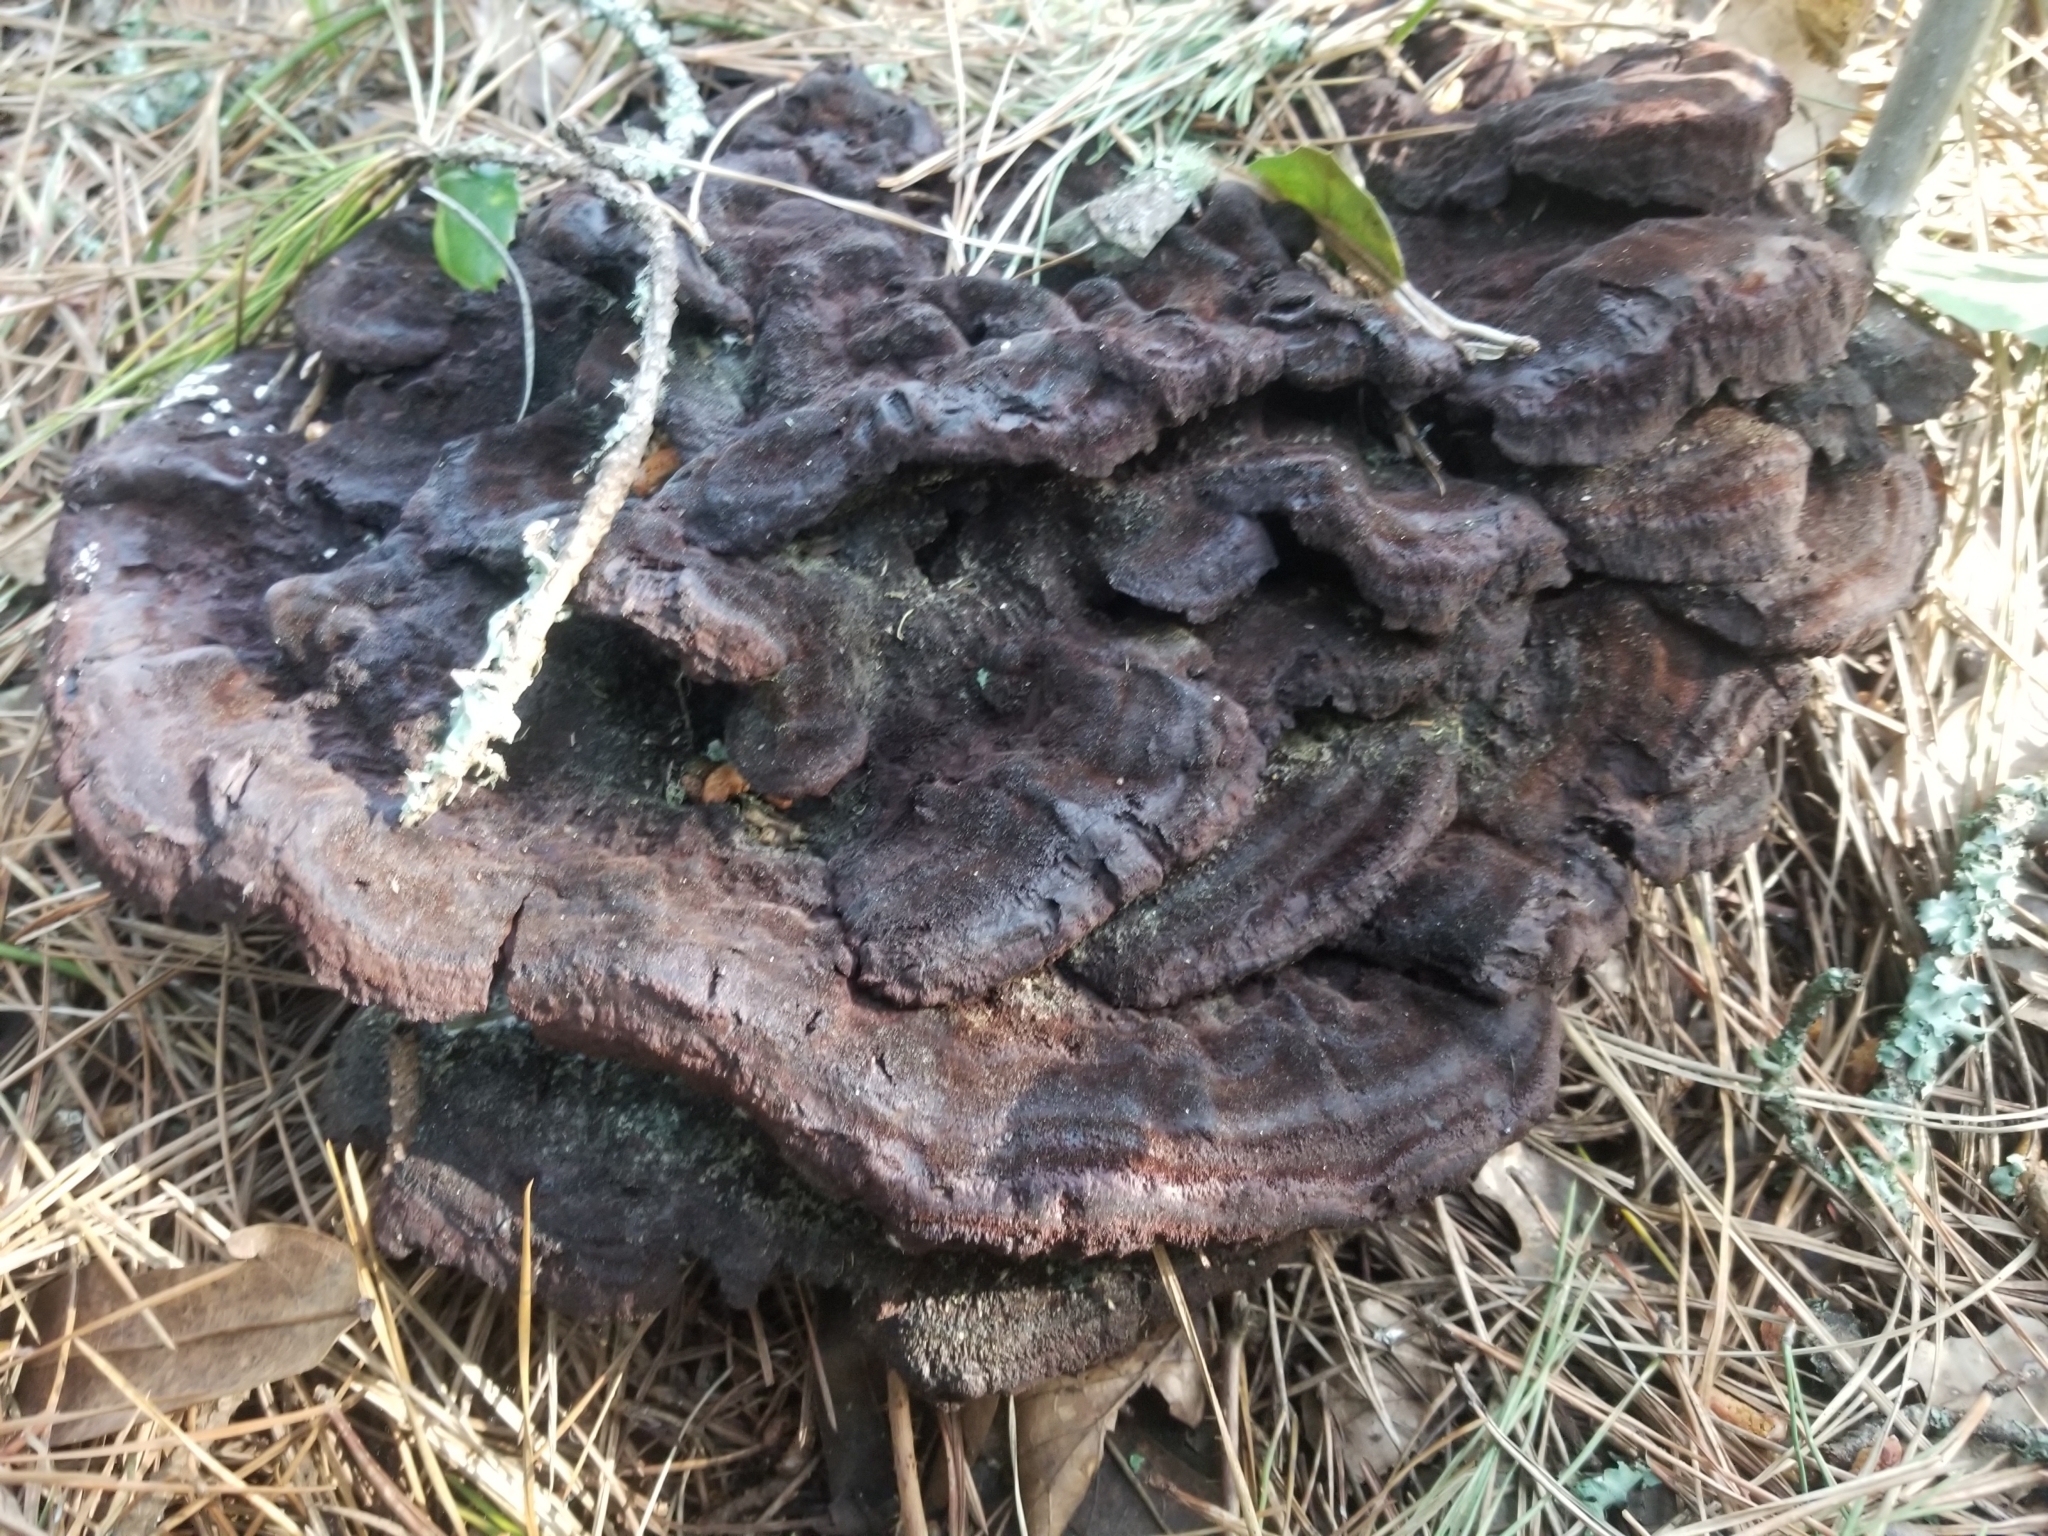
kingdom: Fungi
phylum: Basidiomycota
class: Agaricomycetes
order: Polyporales
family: Laetiporaceae
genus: Phaeolus
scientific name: Phaeolus schweinitzii
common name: Dyer's mazegill
